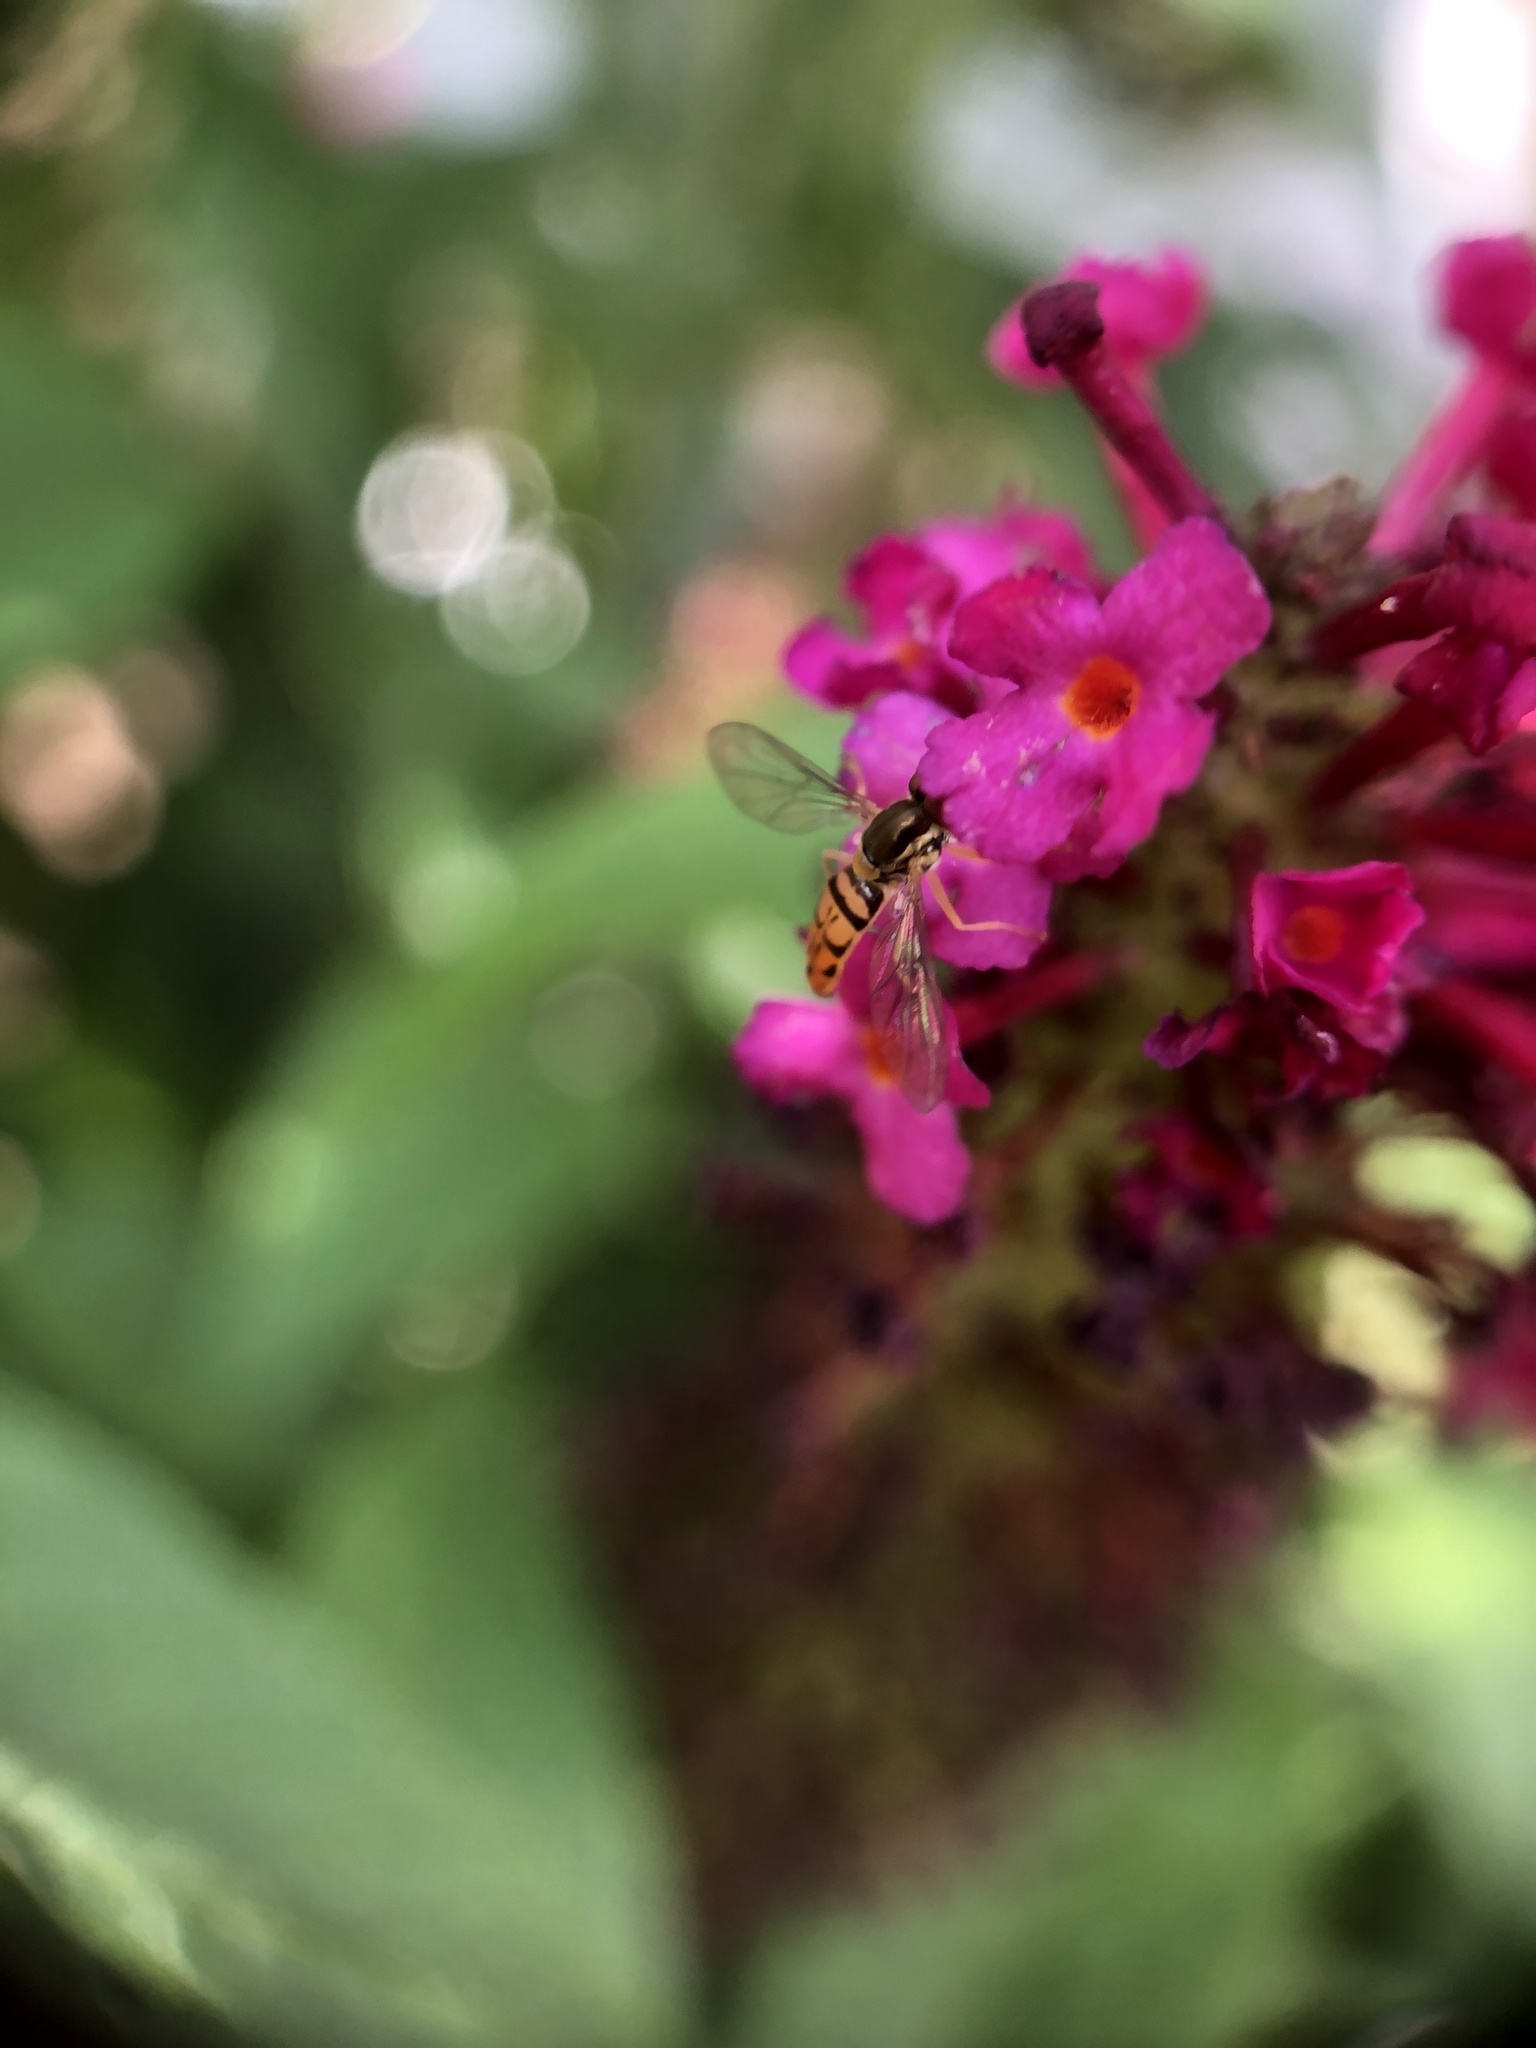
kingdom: Animalia
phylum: Arthropoda
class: Insecta
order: Diptera
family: Syrphidae
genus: Toxomerus
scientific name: Toxomerus marginatus
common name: Syrphid fly
